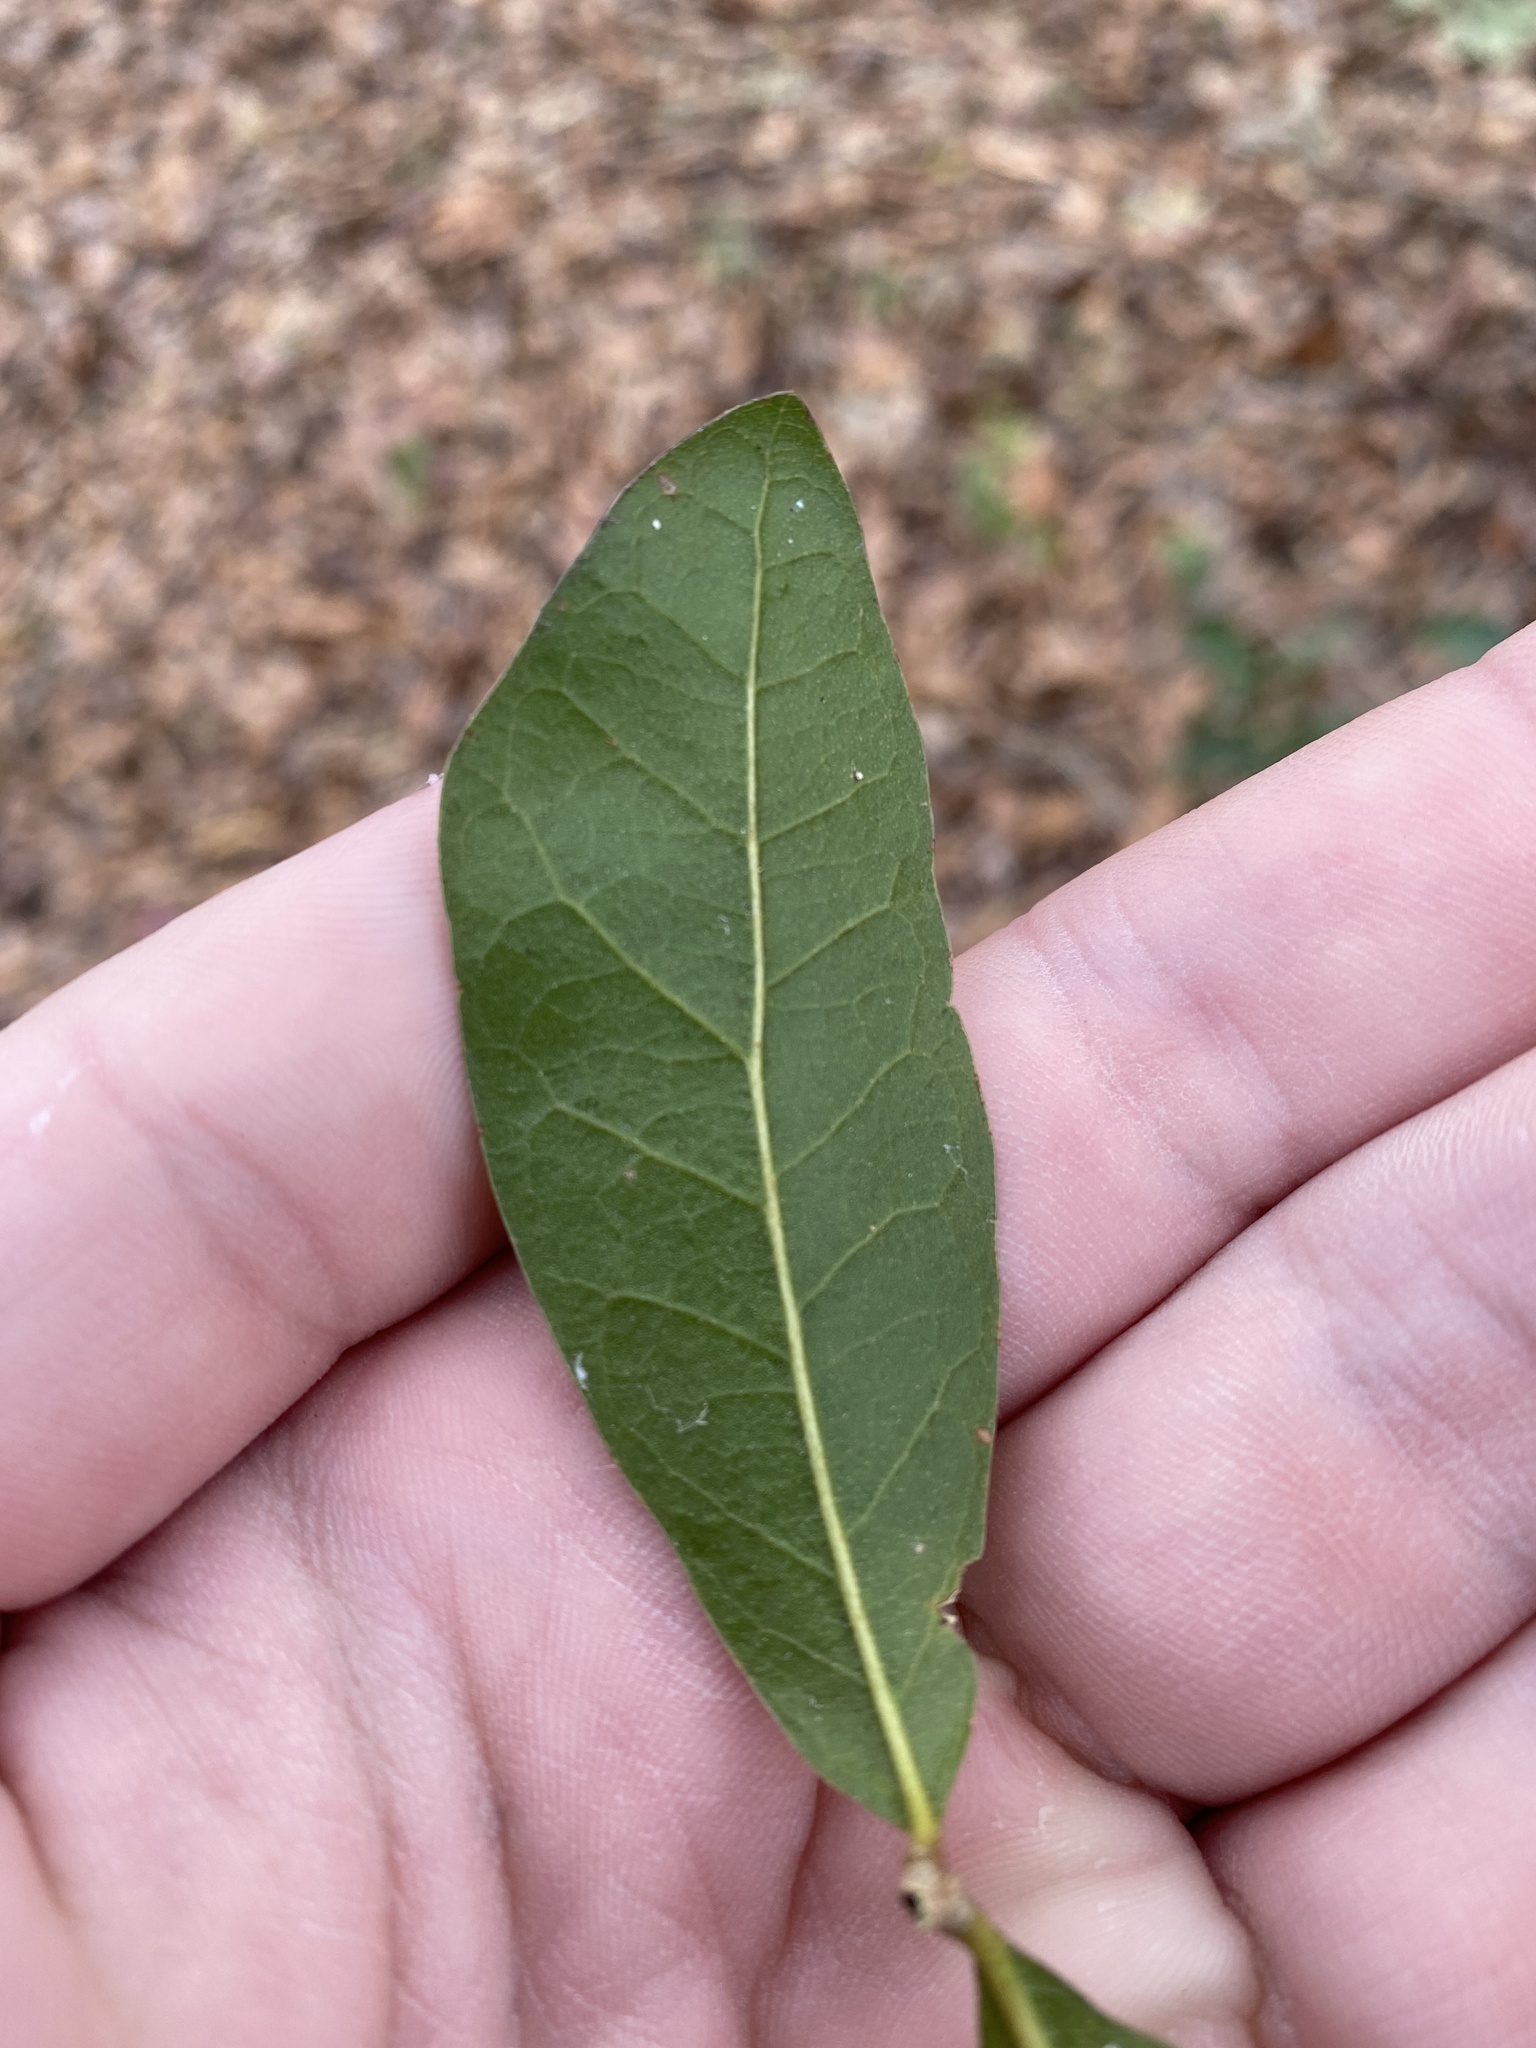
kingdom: Animalia
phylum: Arthropoda
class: Insecta
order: Hymenoptera
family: Cynipidae
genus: Callirhytis
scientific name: Callirhytis
